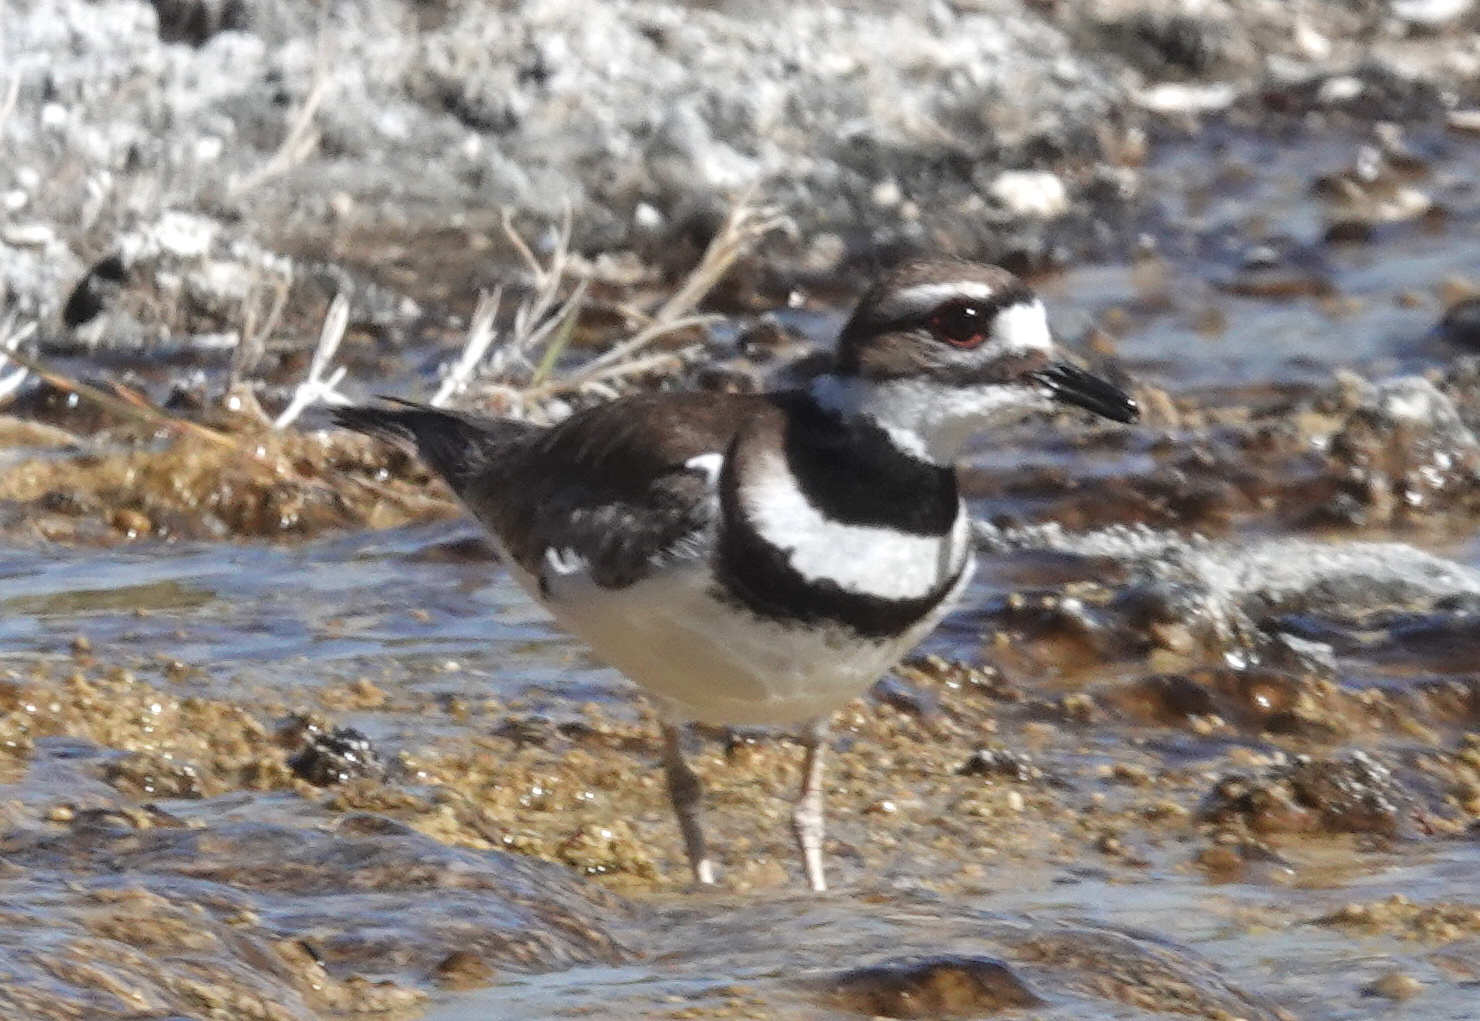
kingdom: Animalia
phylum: Chordata
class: Aves
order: Charadriiformes
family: Charadriidae
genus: Charadrius
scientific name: Charadrius vociferus
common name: Killdeer
